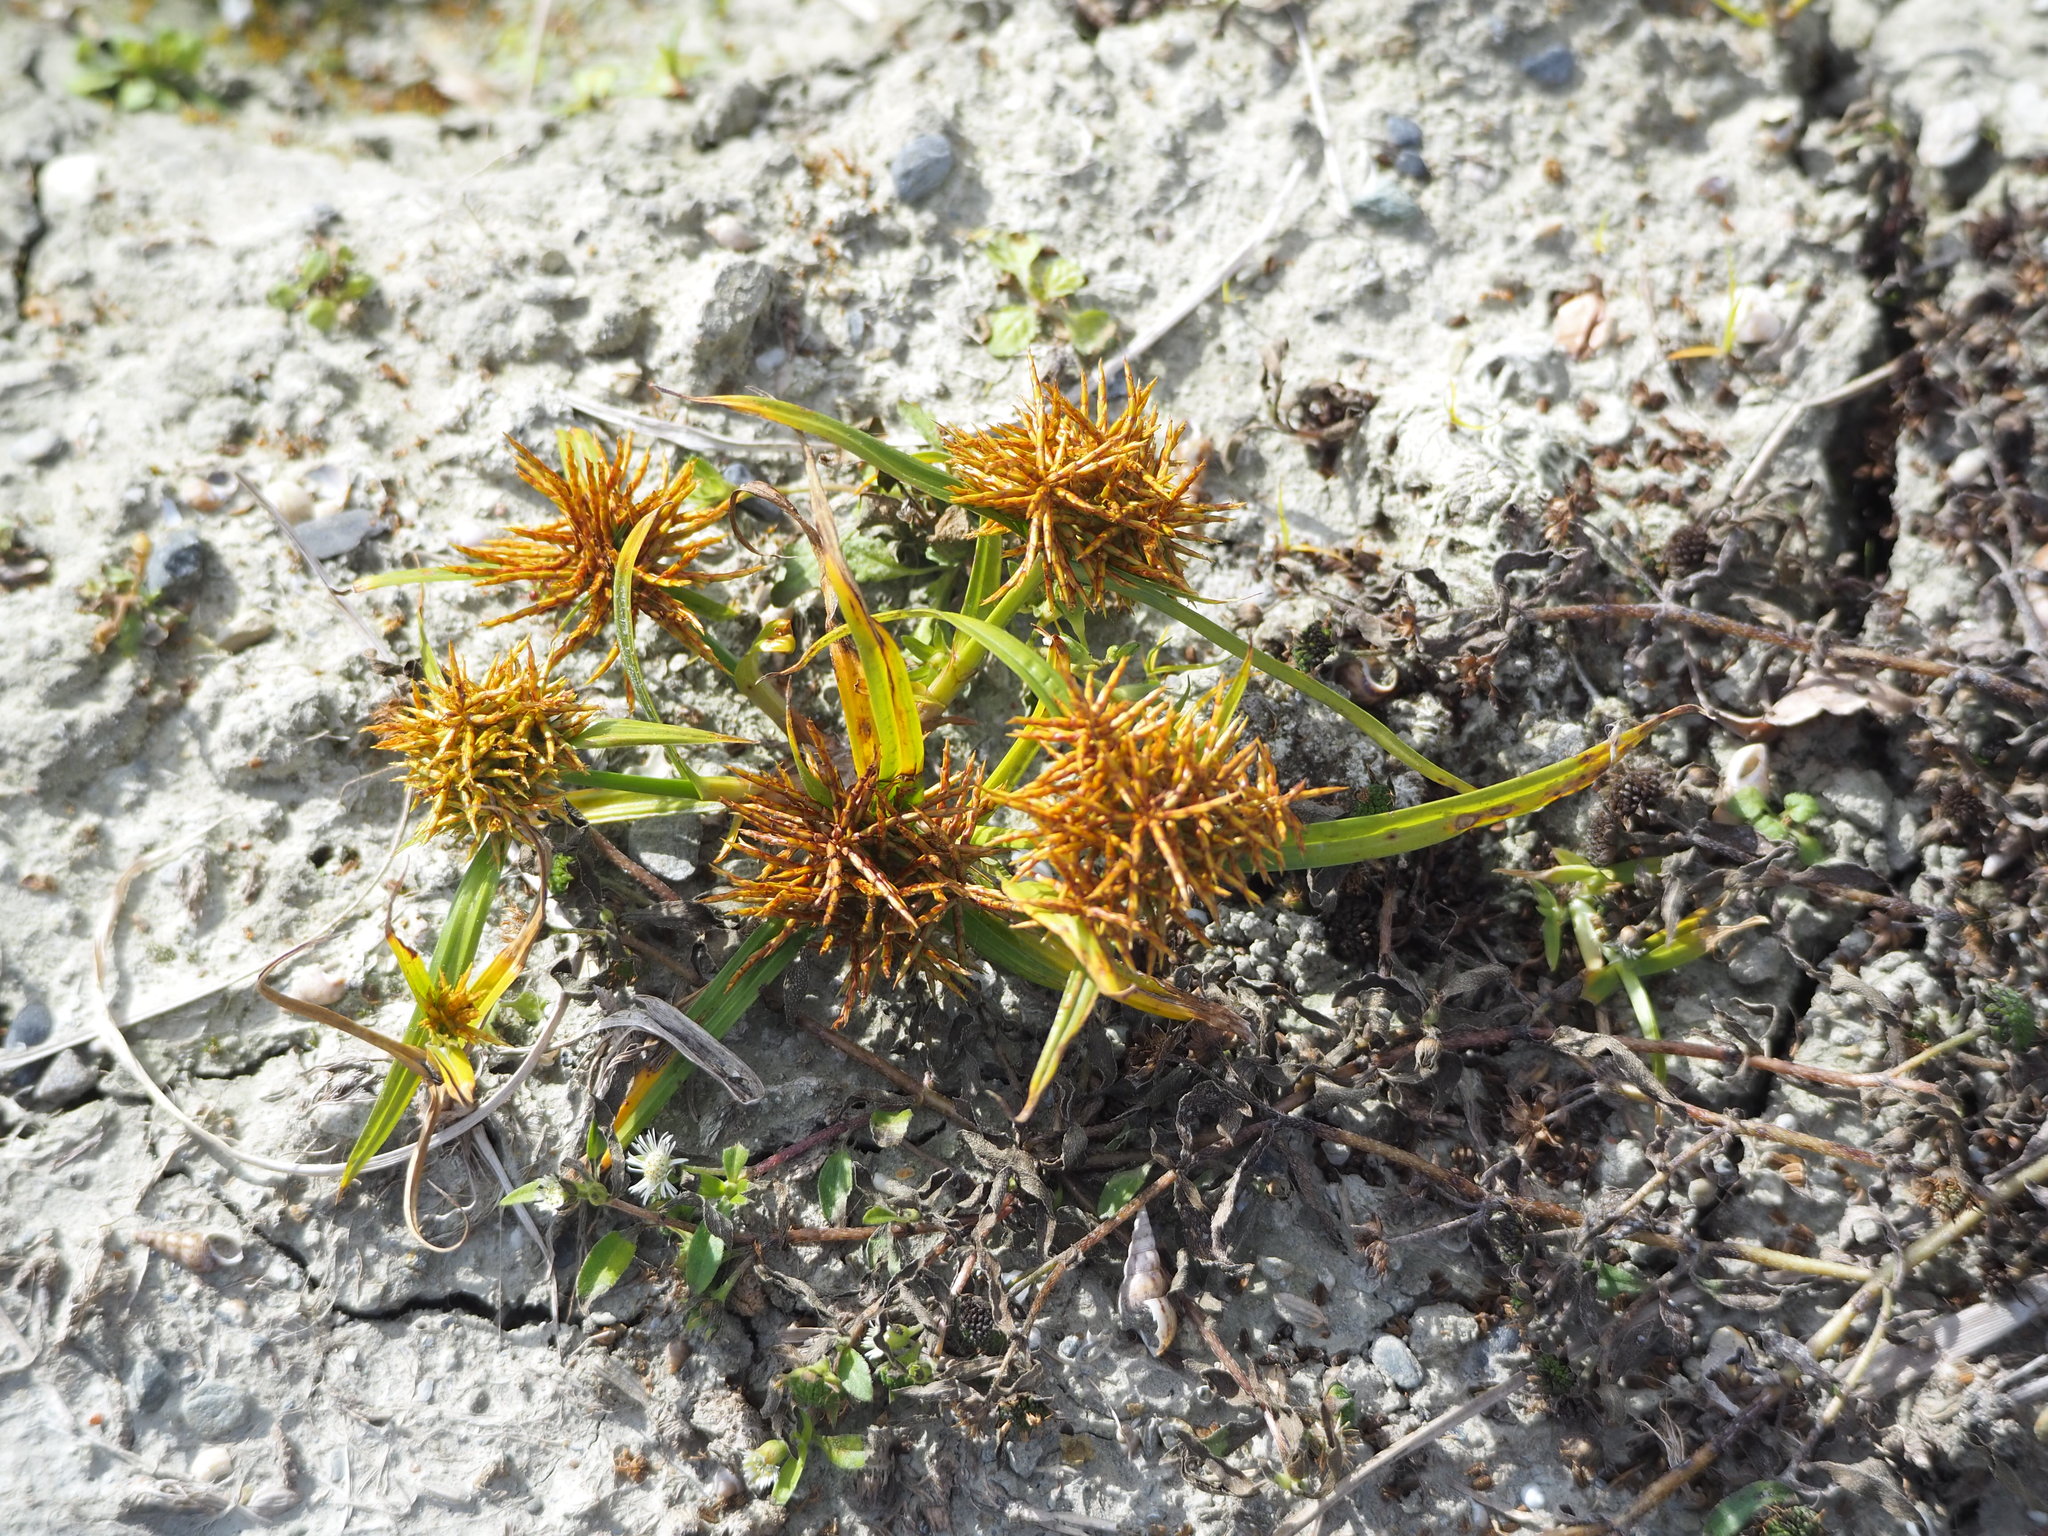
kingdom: Plantae
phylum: Tracheophyta
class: Liliopsida
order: Poales
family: Cyperaceae
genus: Cyperus
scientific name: Cyperus odoratus
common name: Fragrant flatsedge
